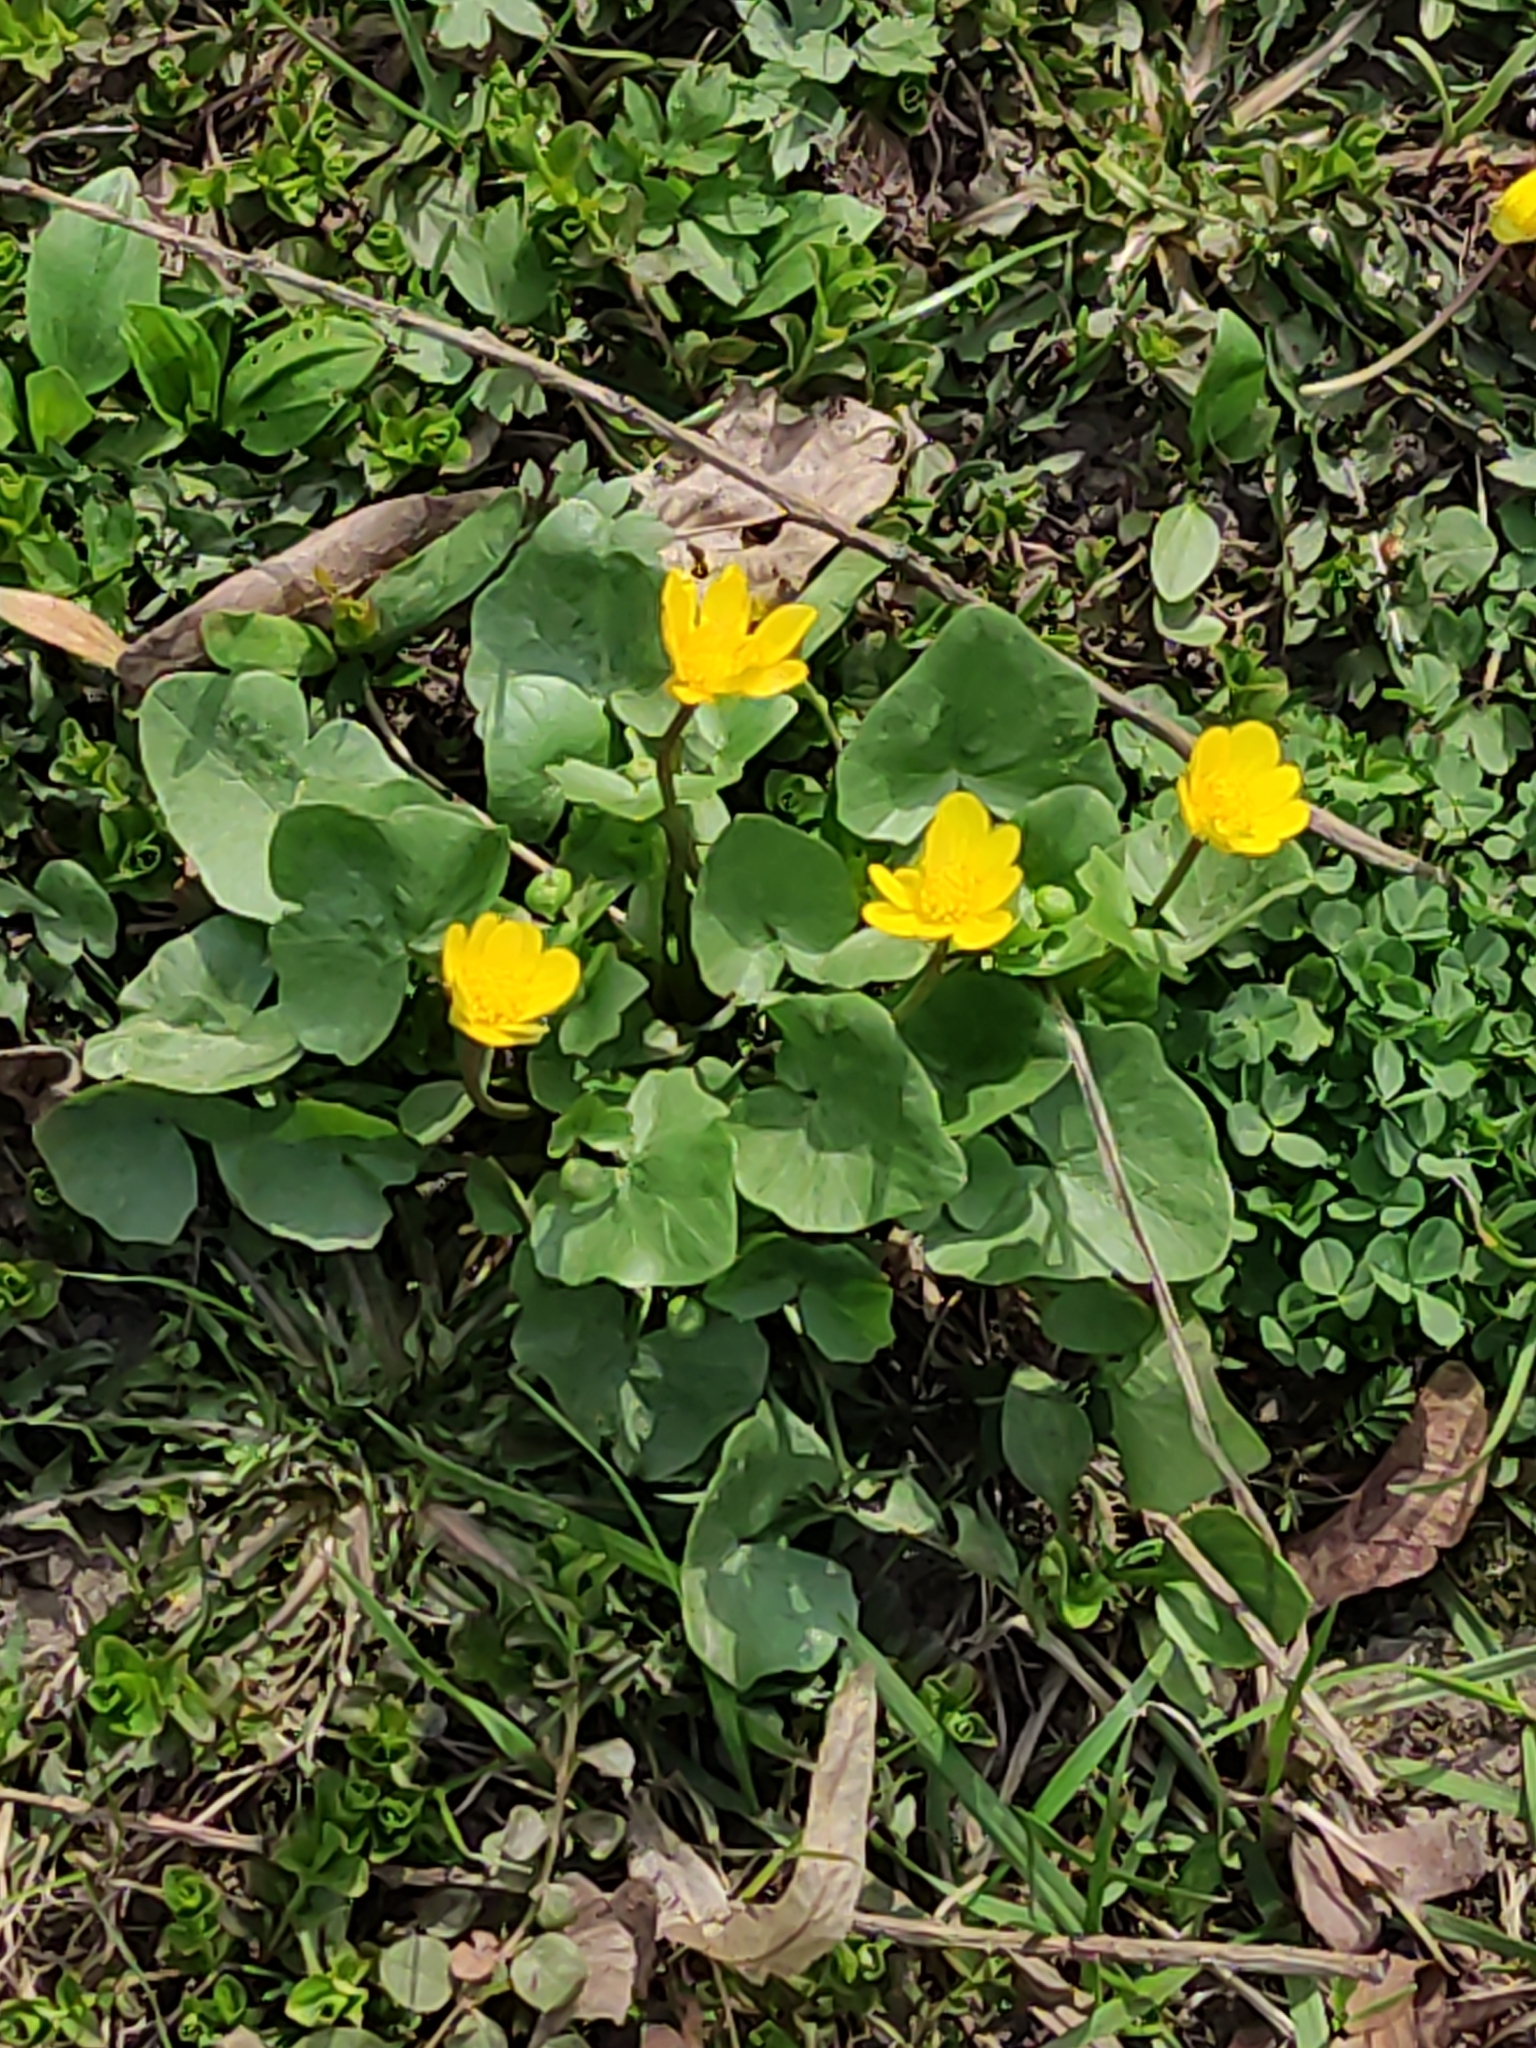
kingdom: Plantae
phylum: Tracheophyta
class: Magnoliopsida
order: Ranunculales
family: Ranunculaceae
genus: Ficaria
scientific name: Ficaria verna
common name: Lesser celandine
